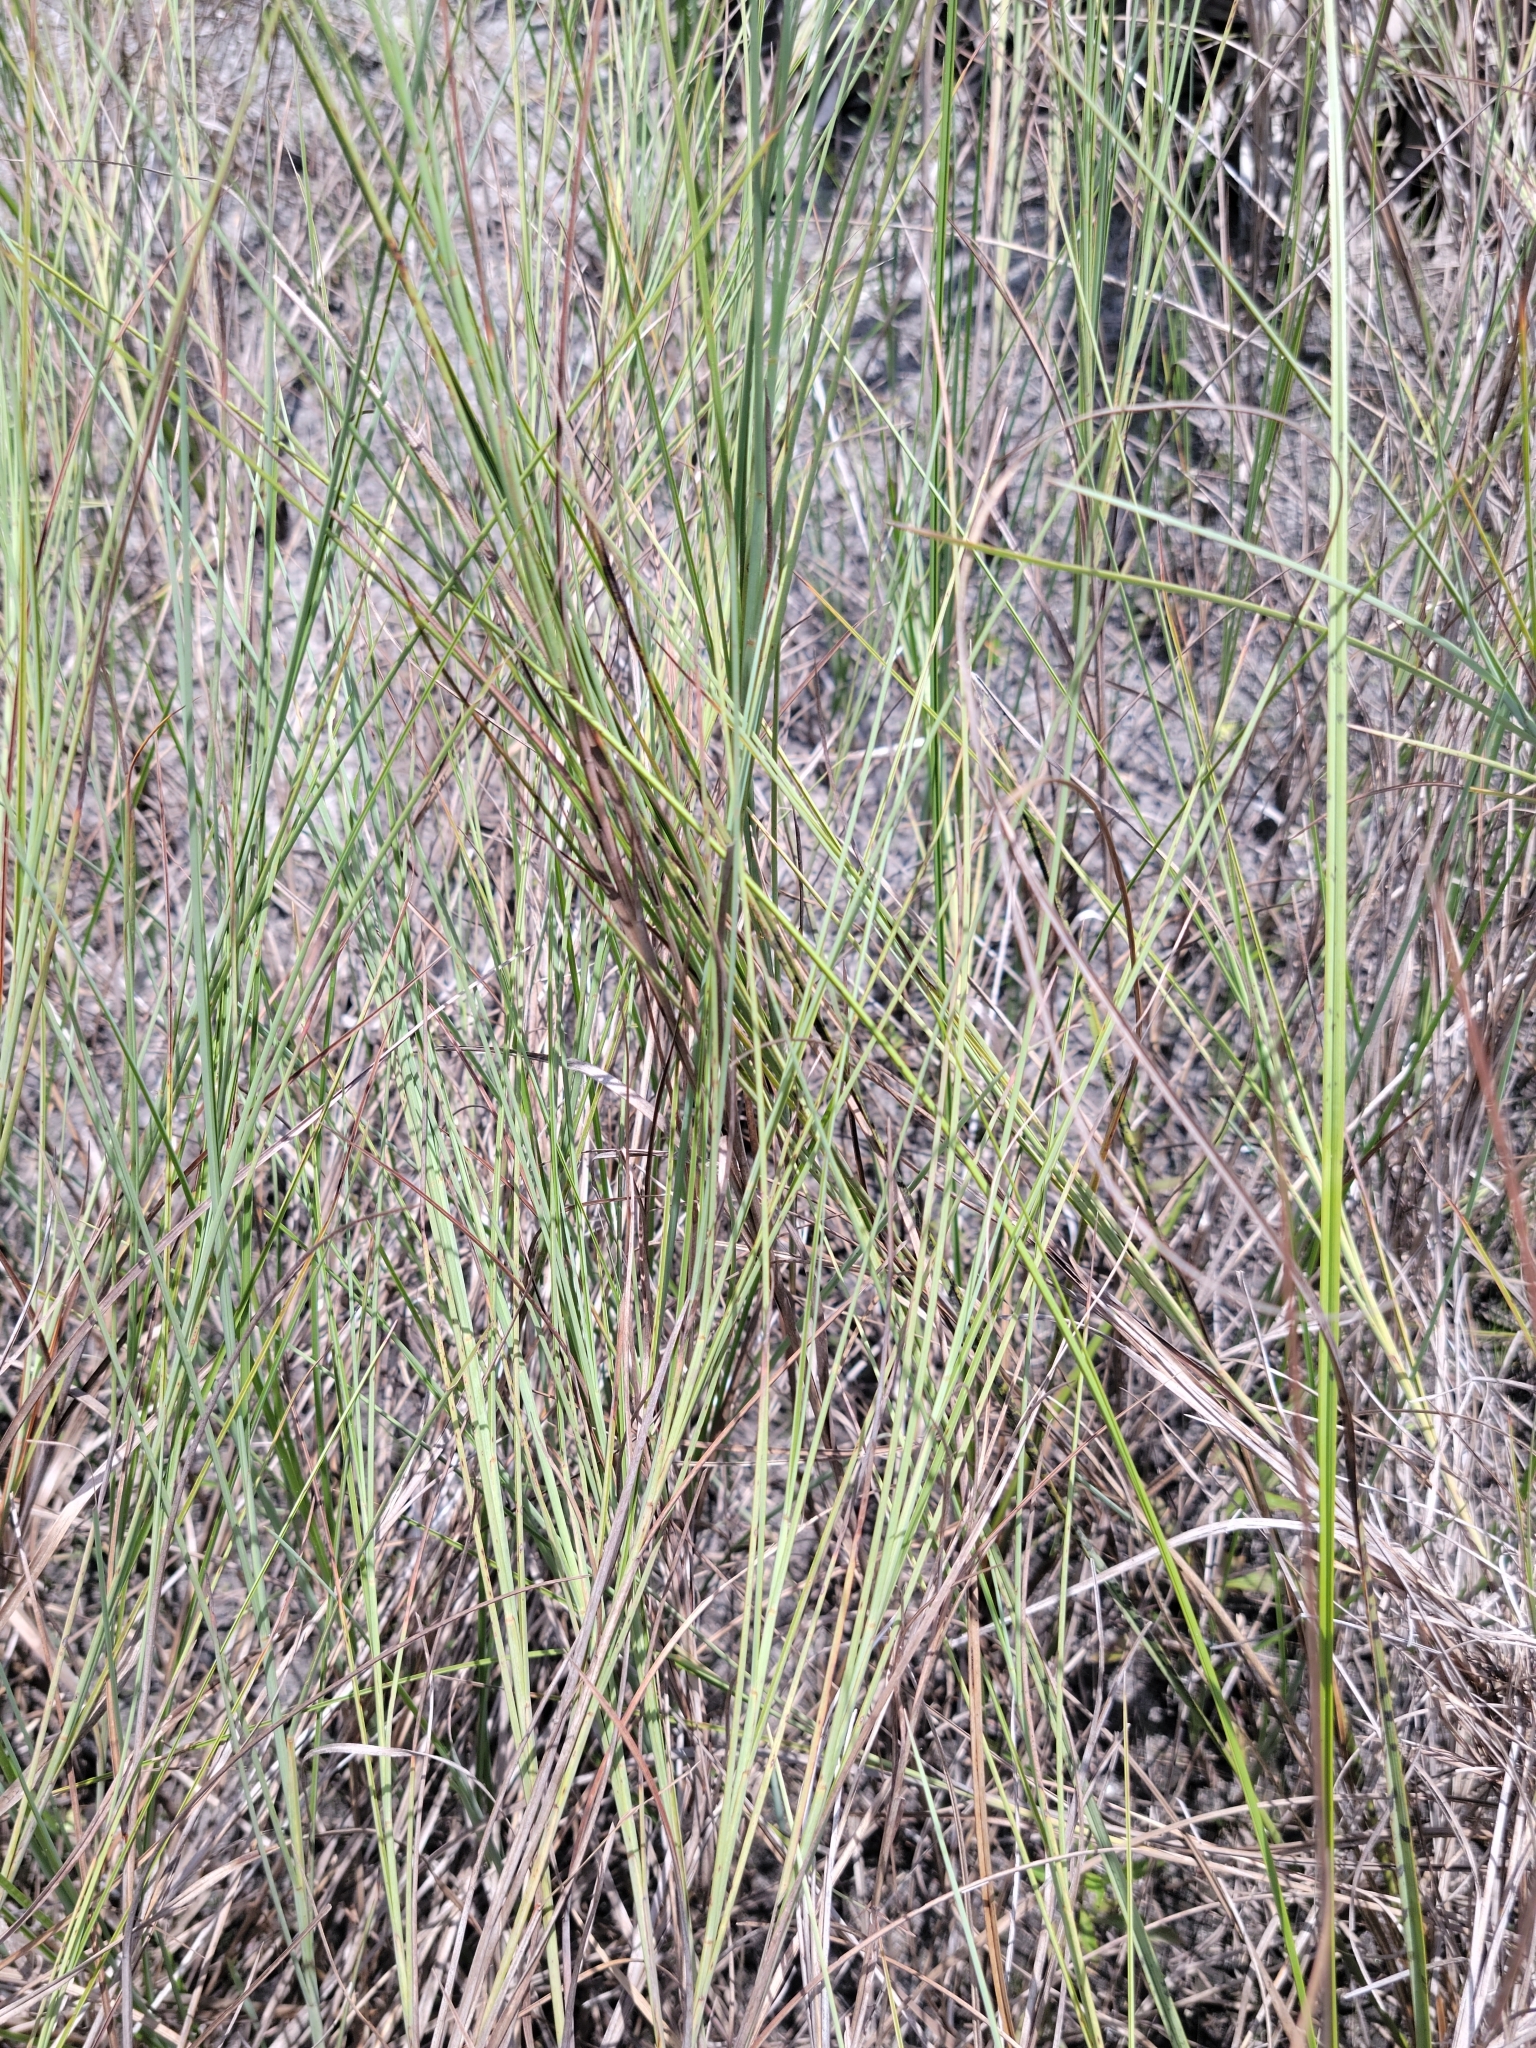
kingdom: Plantae
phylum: Tracheophyta
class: Liliopsida
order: Poales
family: Poaceae
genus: Schizachyrium
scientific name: Schizachyrium rhizomatum
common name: Florida little bluestem
